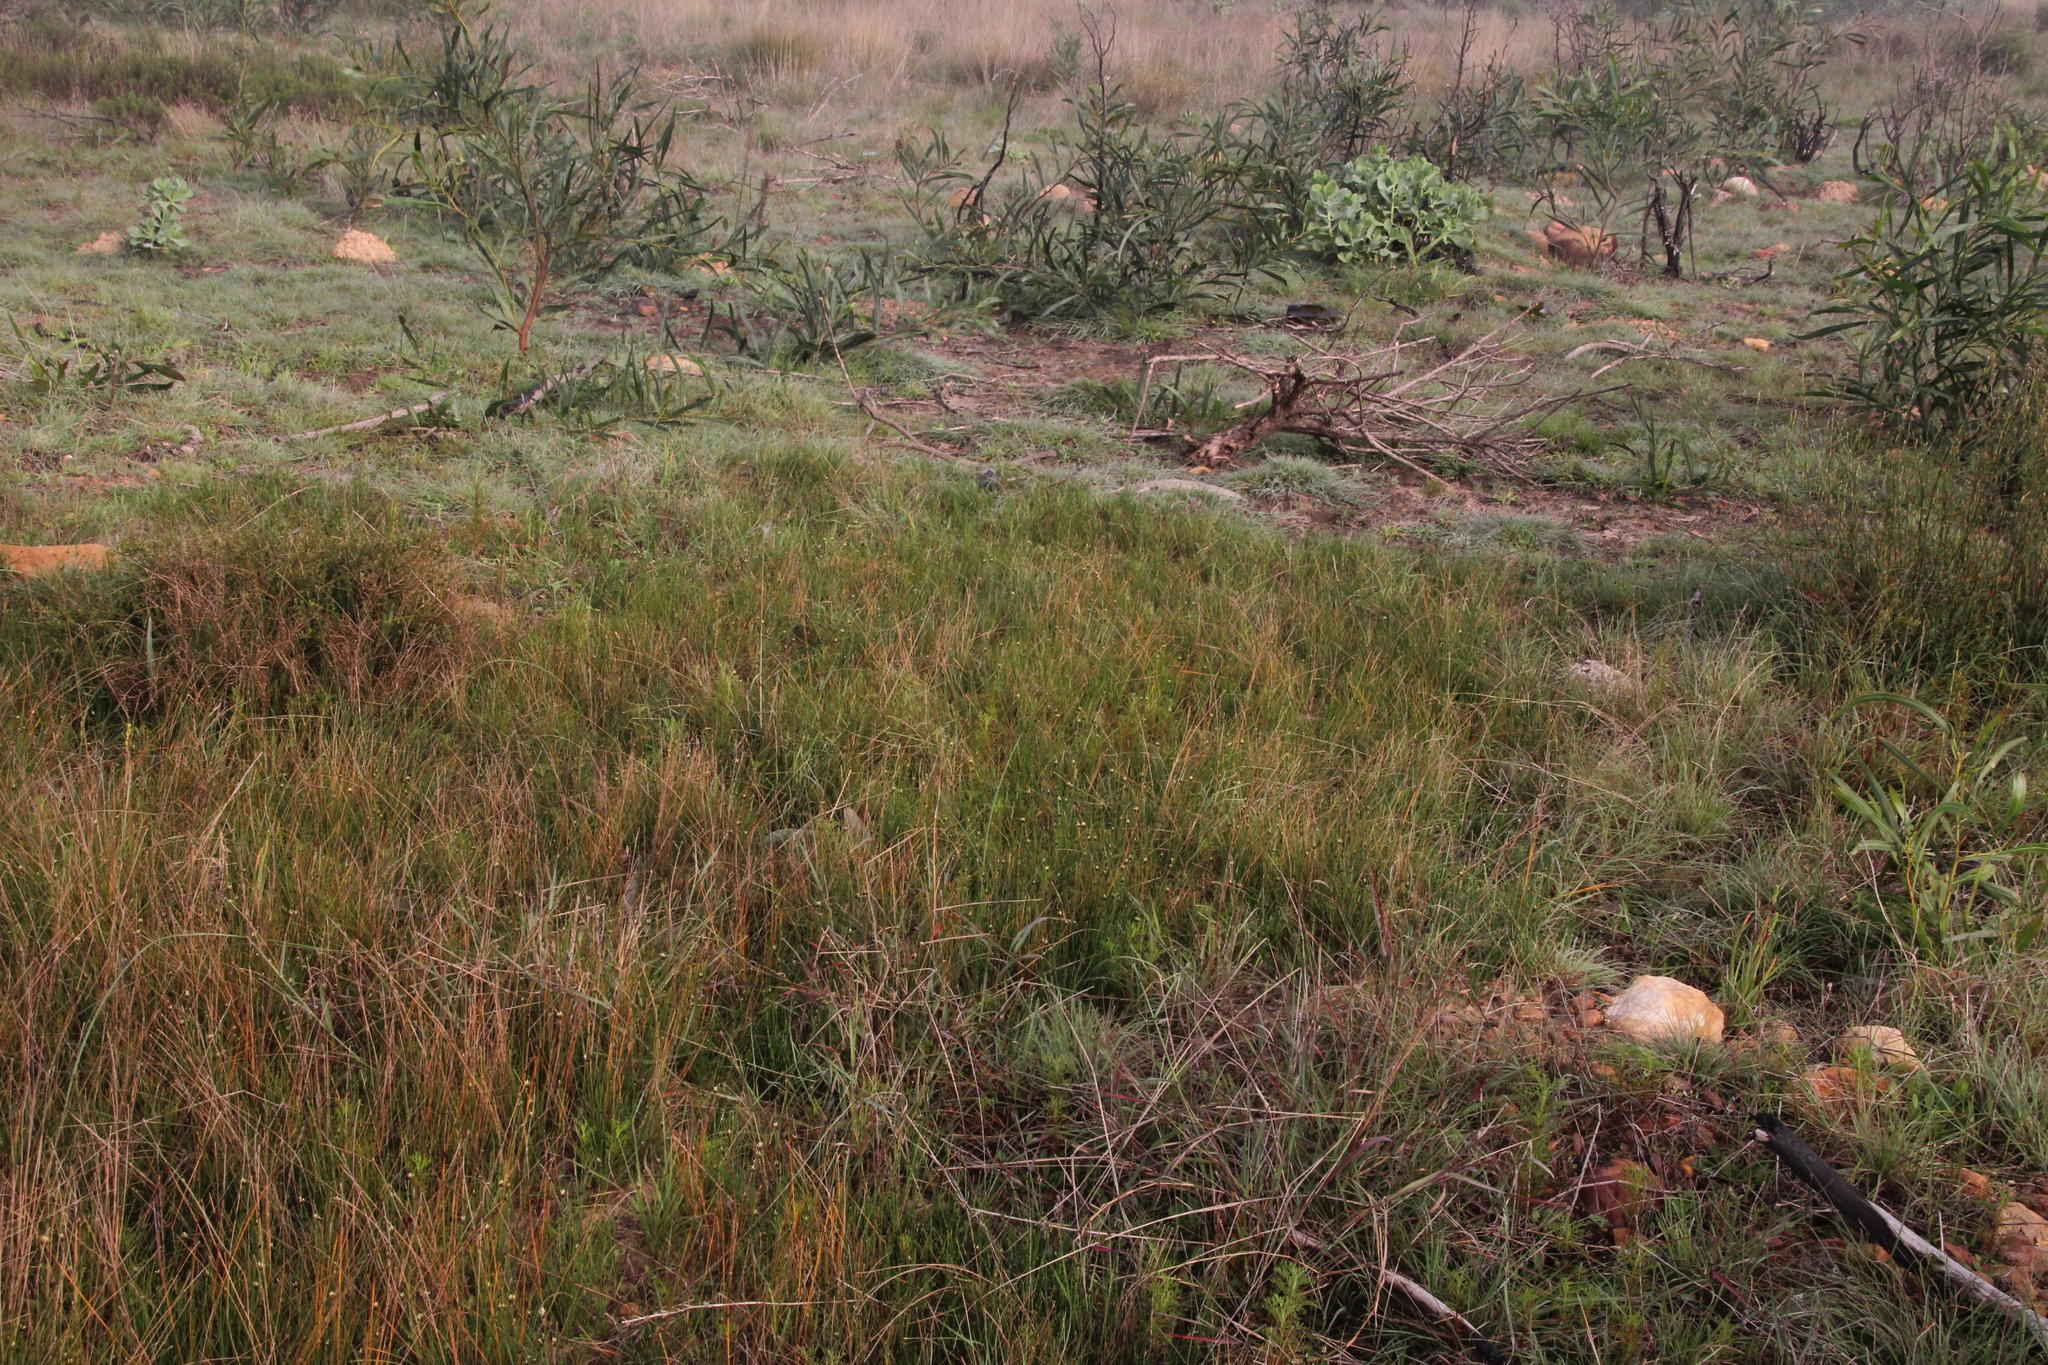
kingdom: Plantae
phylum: Tracheophyta
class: Liliopsida
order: Poales
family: Cyperaceae
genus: Ficinia
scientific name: Ficinia indica
